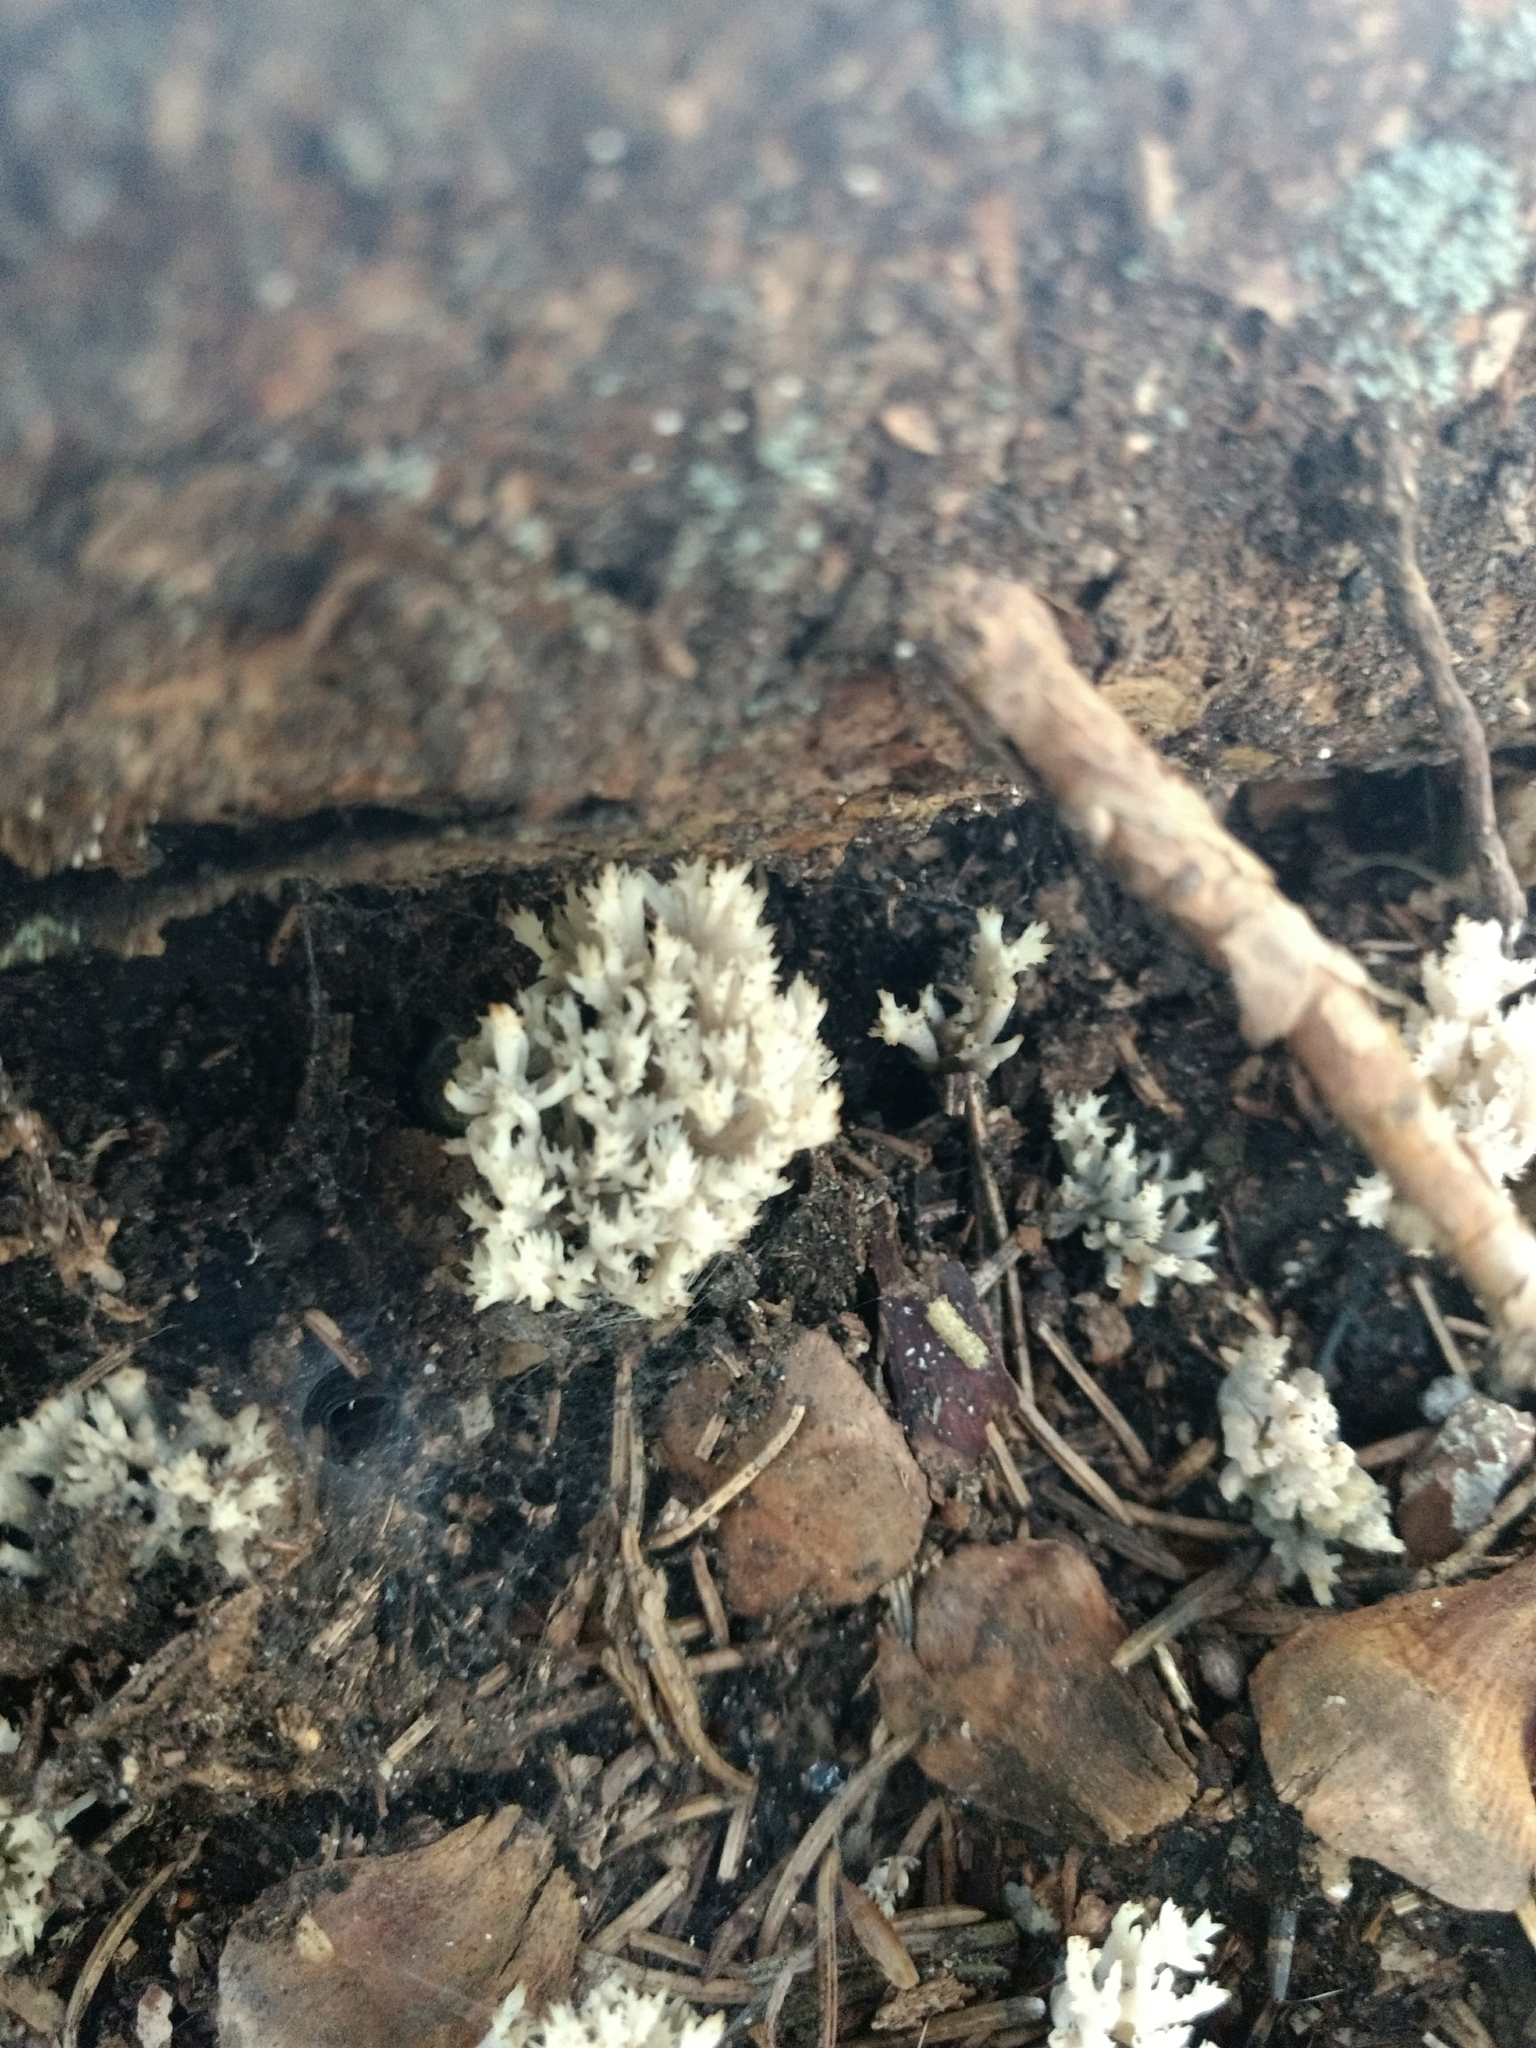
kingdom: Fungi
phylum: Basidiomycota
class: Agaricomycetes
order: Cantharellales
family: Hydnaceae
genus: Clavulina
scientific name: Clavulina coralloides
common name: Crested coral
